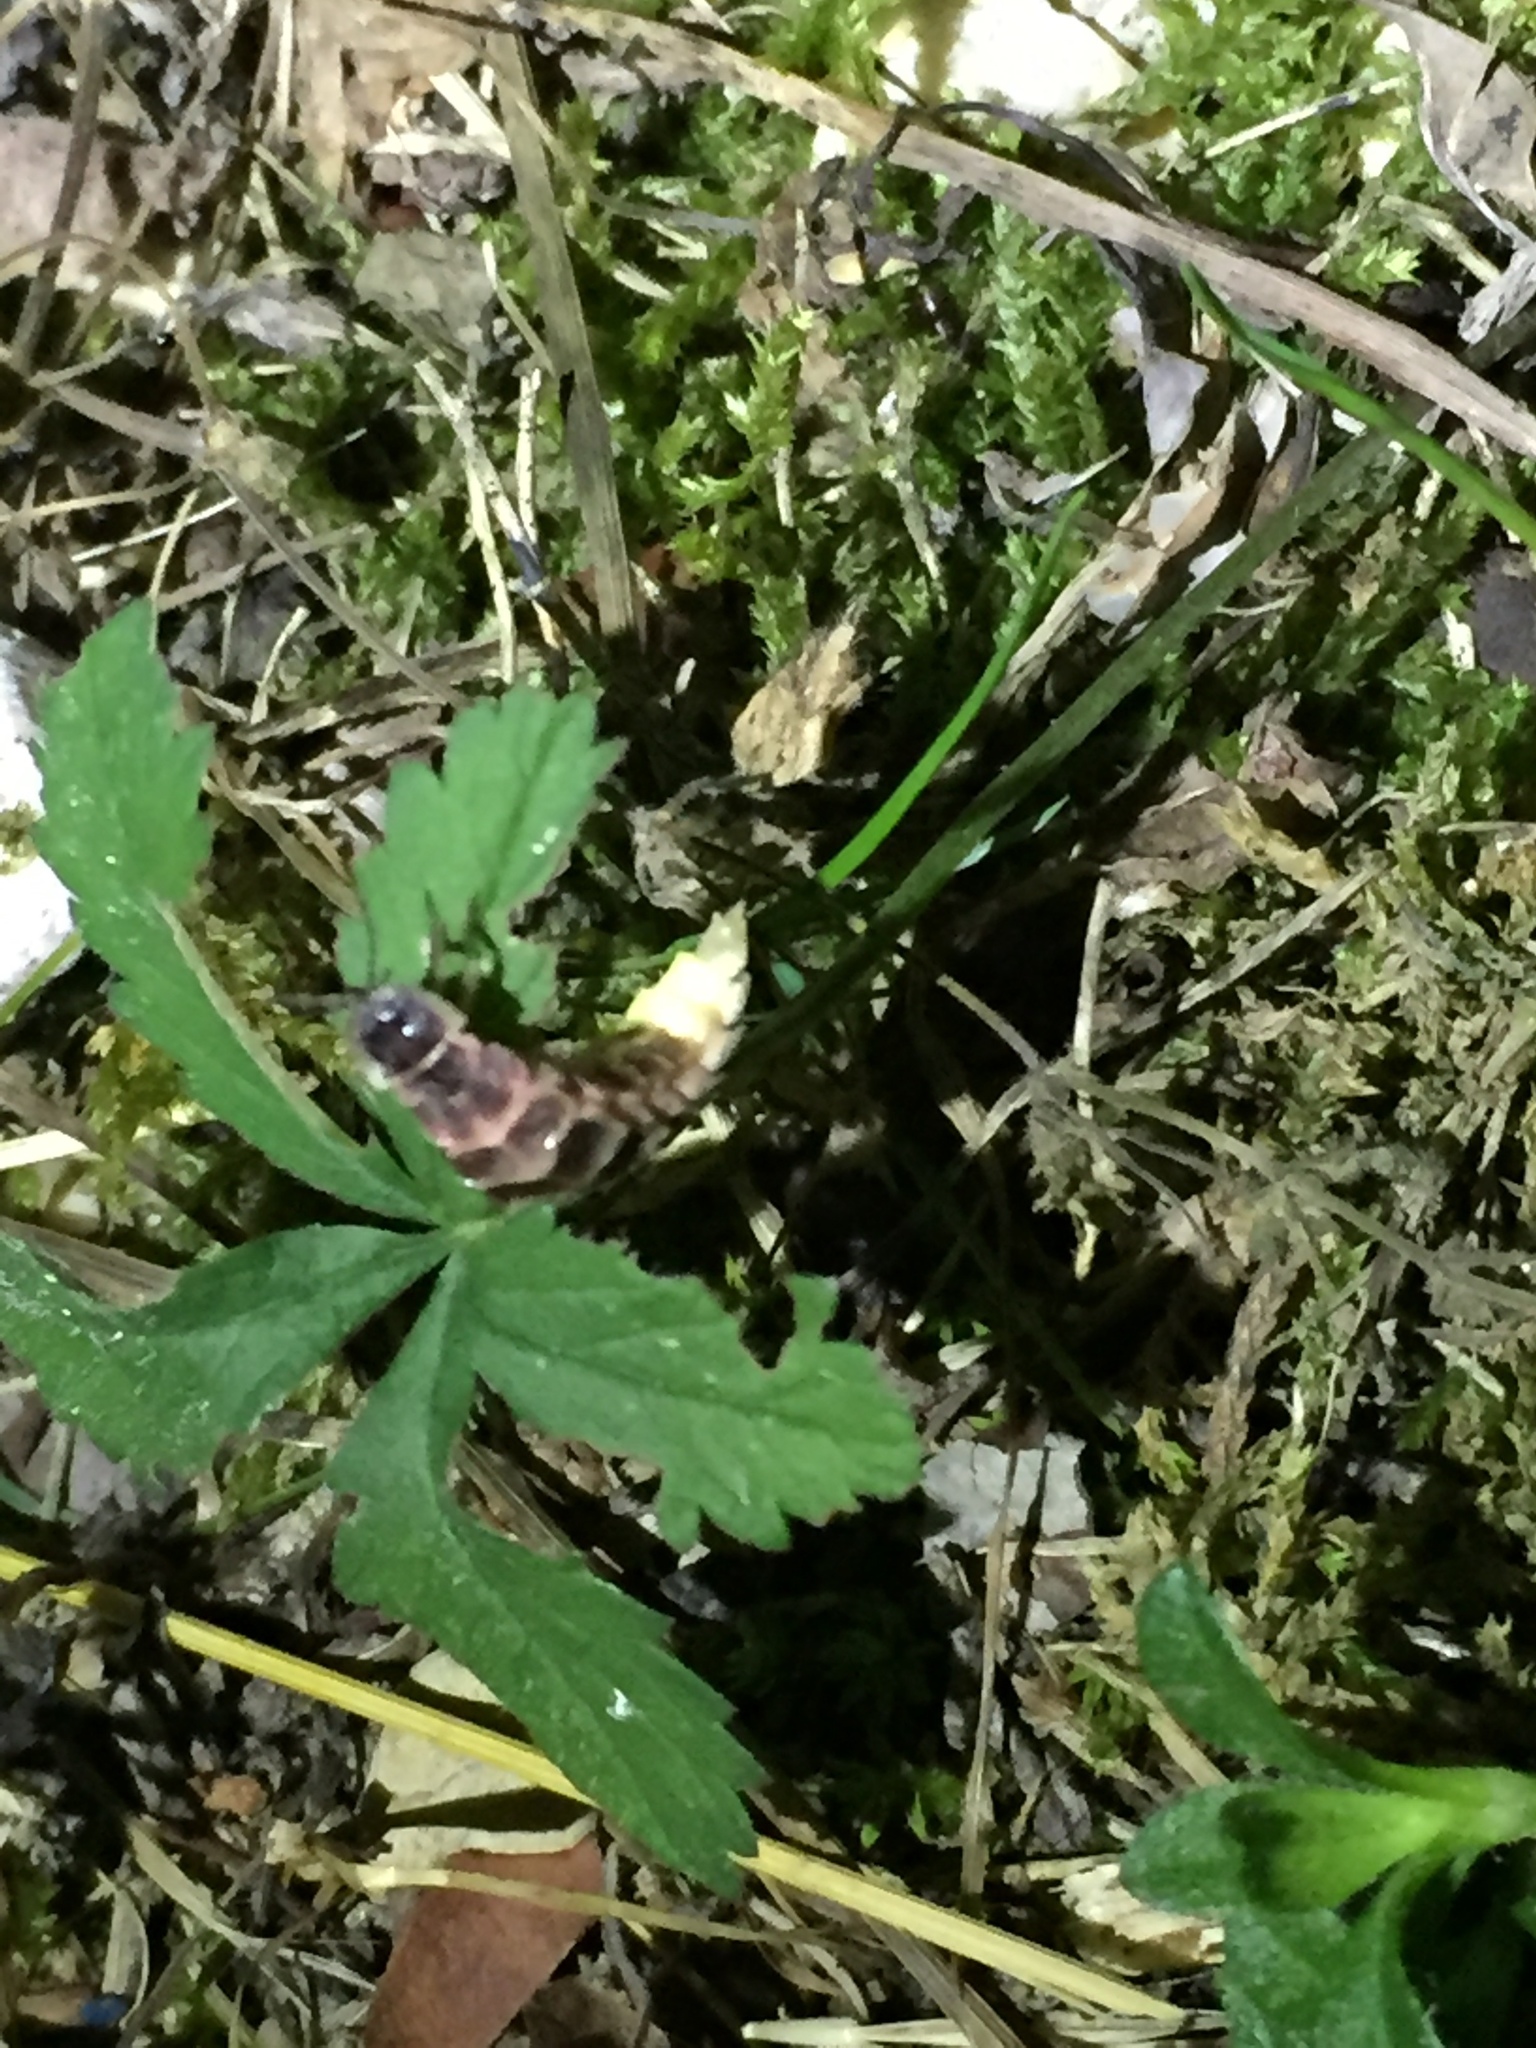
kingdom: Animalia
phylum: Arthropoda
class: Insecta
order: Coleoptera
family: Lampyridae
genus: Lampyris
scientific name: Lampyris noctiluca
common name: Glow-worm
